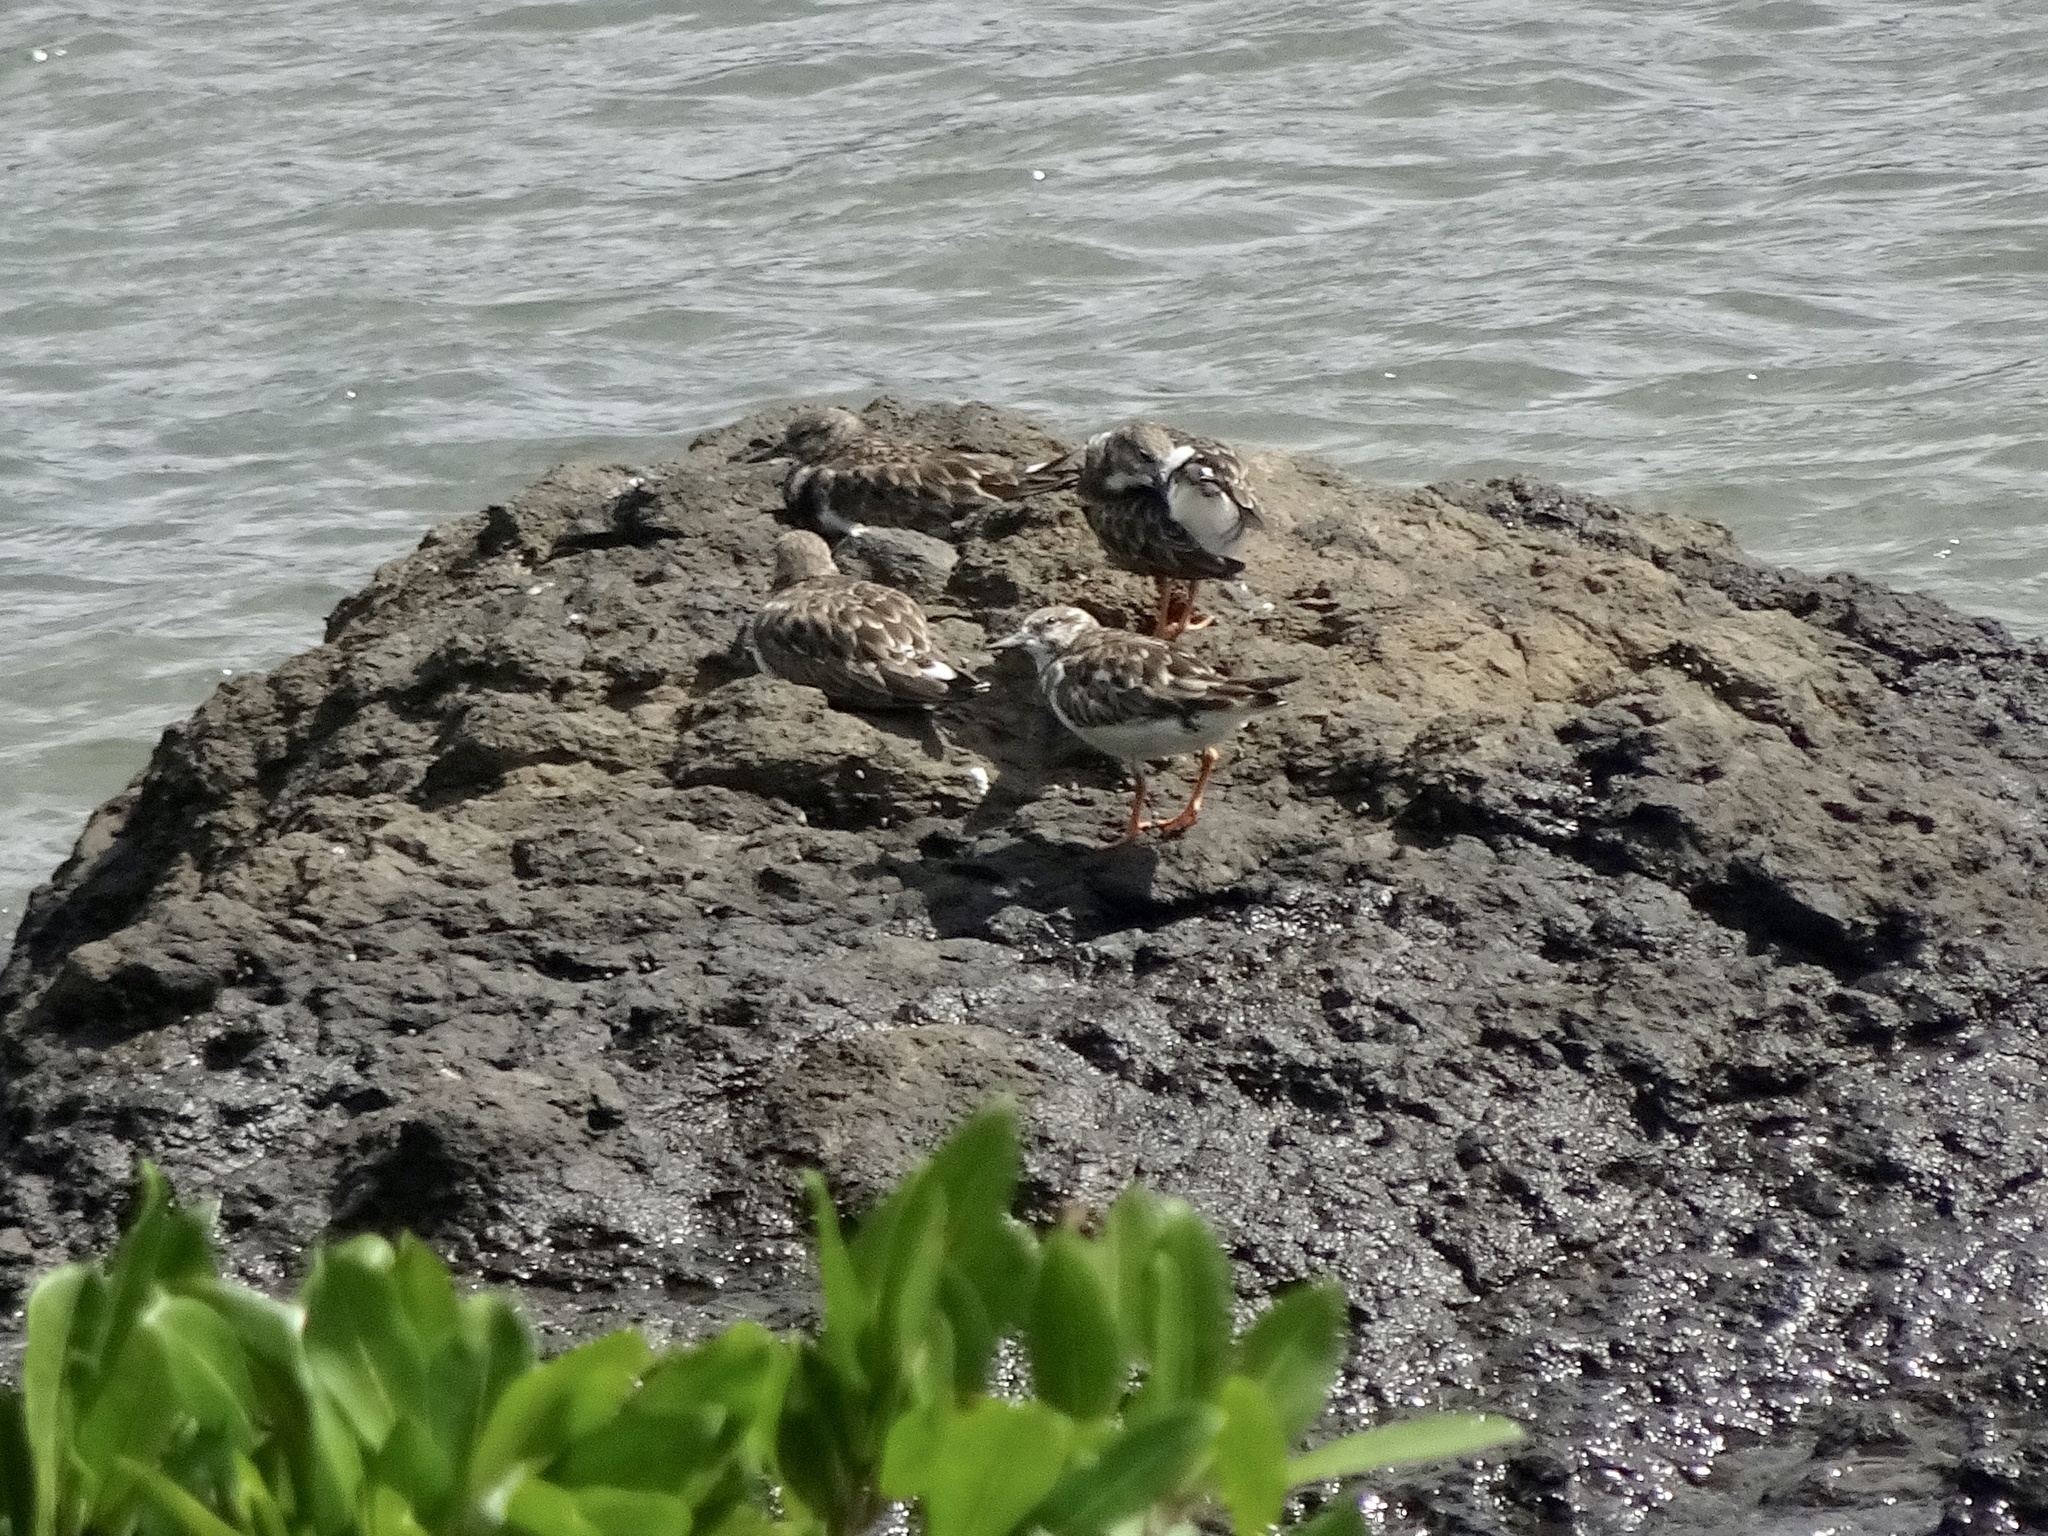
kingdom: Animalia
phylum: Chordata
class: Aves
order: Charadriiformes
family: Scolopacidae
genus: Arenaria
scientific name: Arenaria interpres
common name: Ruddy turnstone
